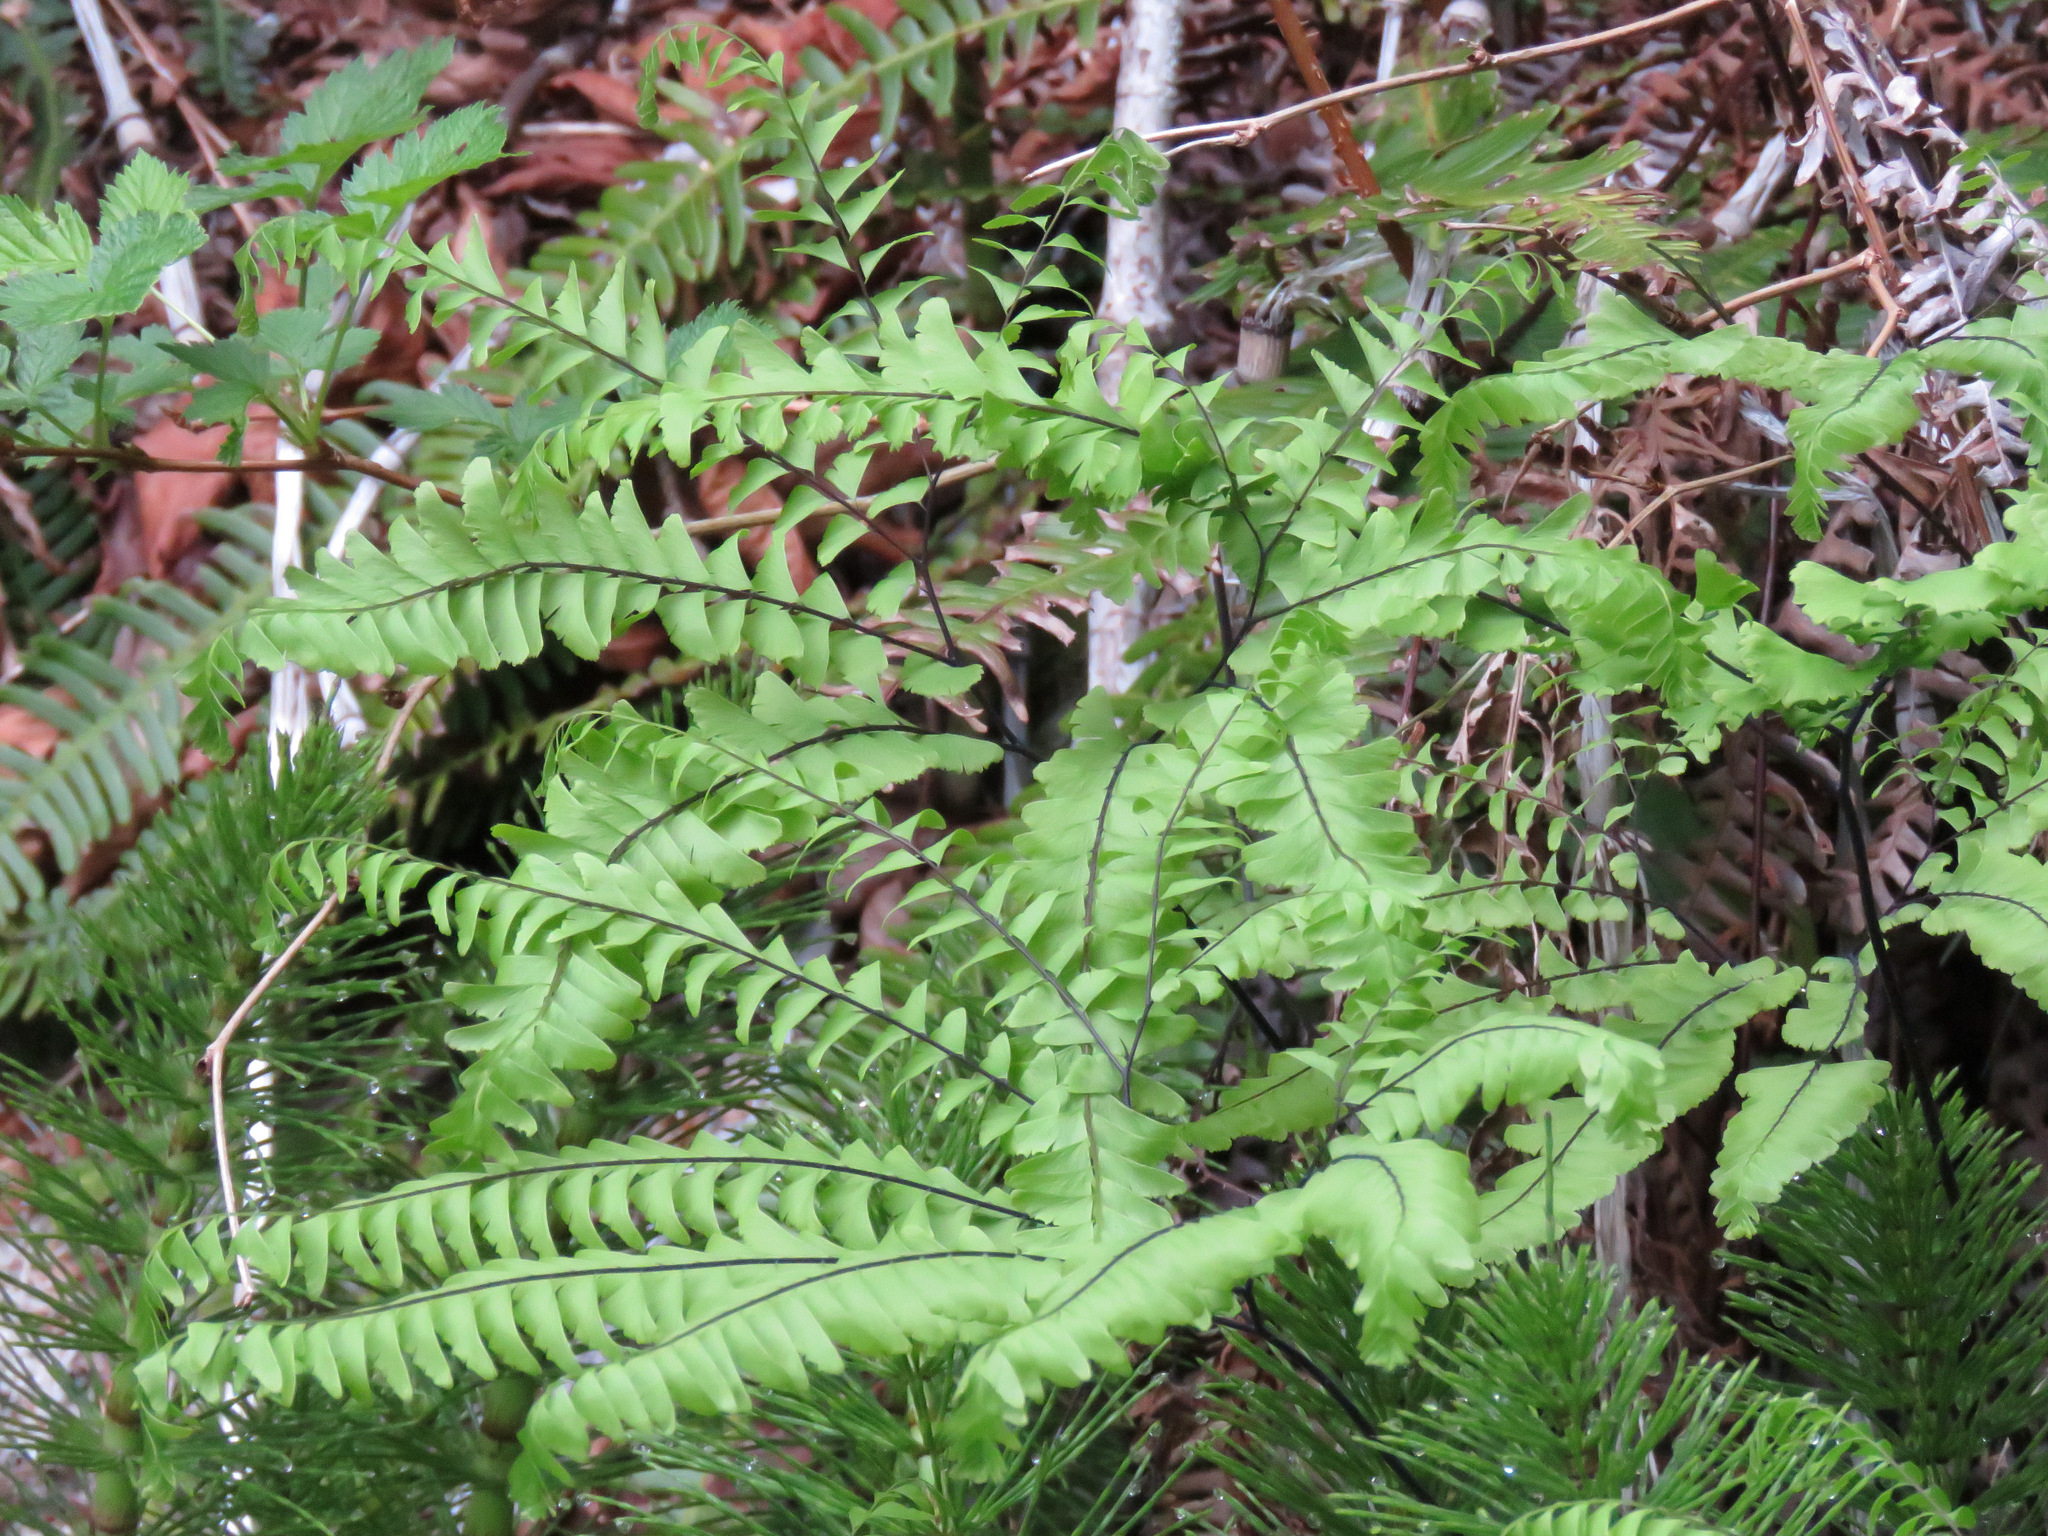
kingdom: Plantae
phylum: Tracheophyta
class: Polypodiopsida
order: Polypodiales
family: Pteridaceae
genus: Adiantum
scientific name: Adiantum aleuticum
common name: Aleutian maidenhair fern
